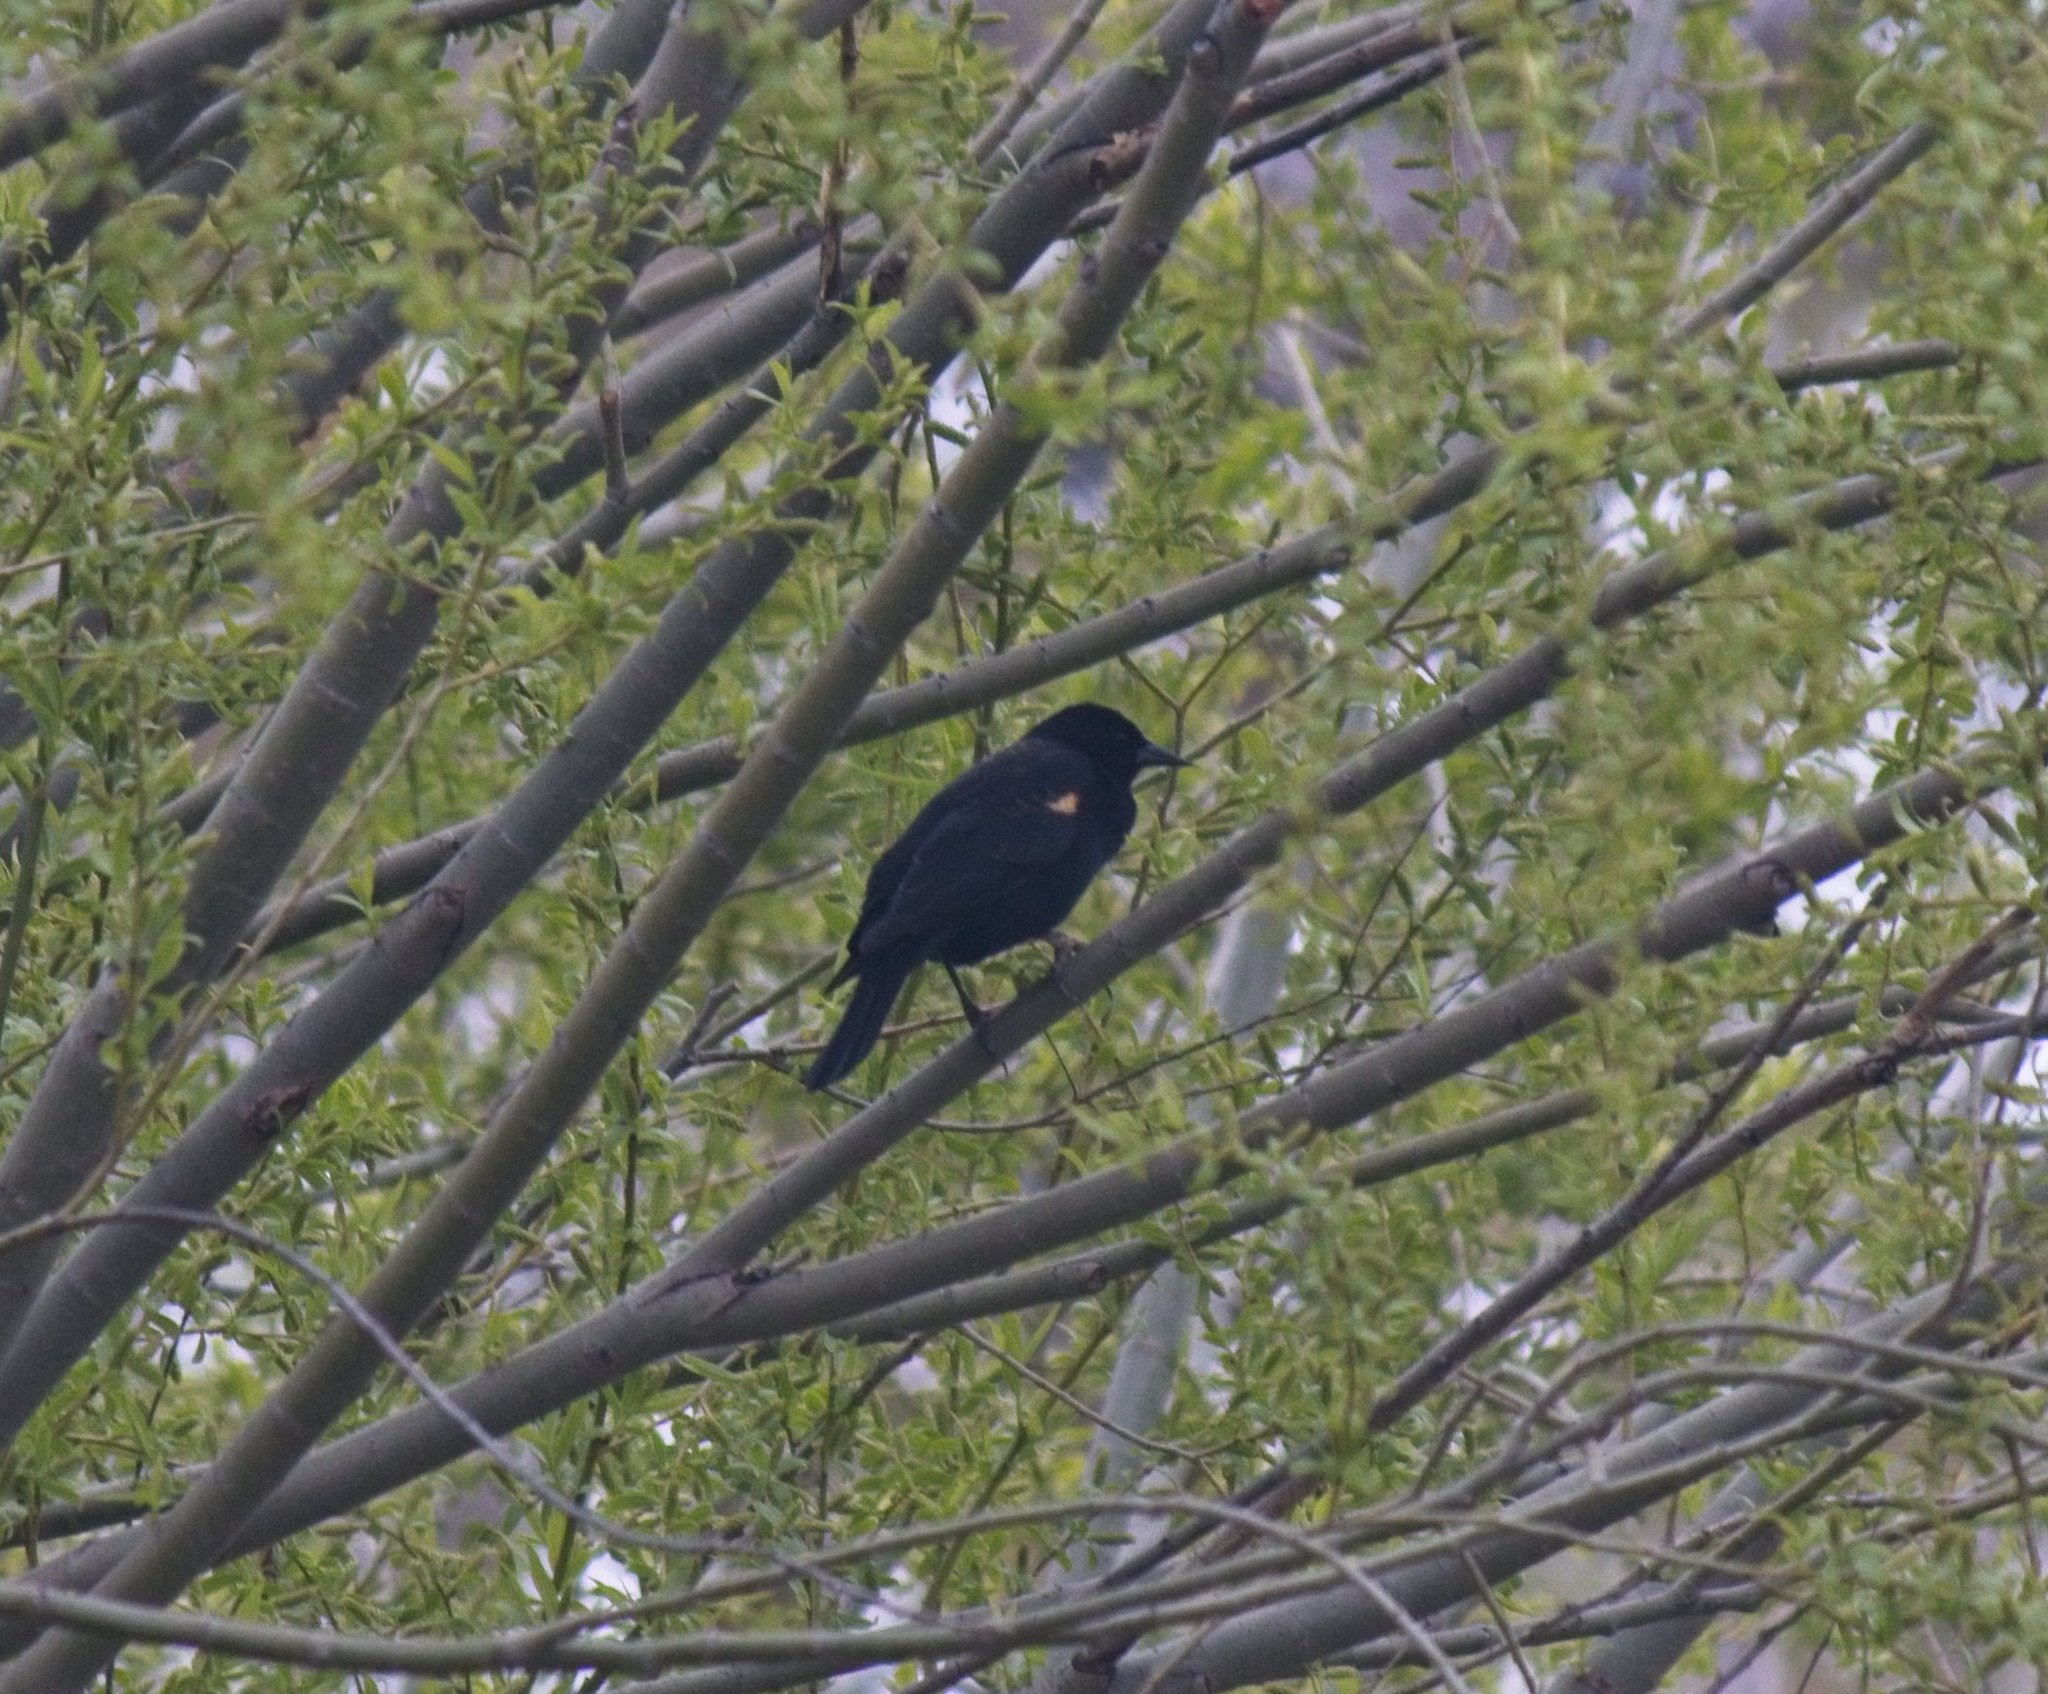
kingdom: Animalia
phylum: Chordata
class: Aves
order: Passeriformes
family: Icteridae
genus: Agelaius
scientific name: Agelaius phoeniceus
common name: Red-winged blackbird
